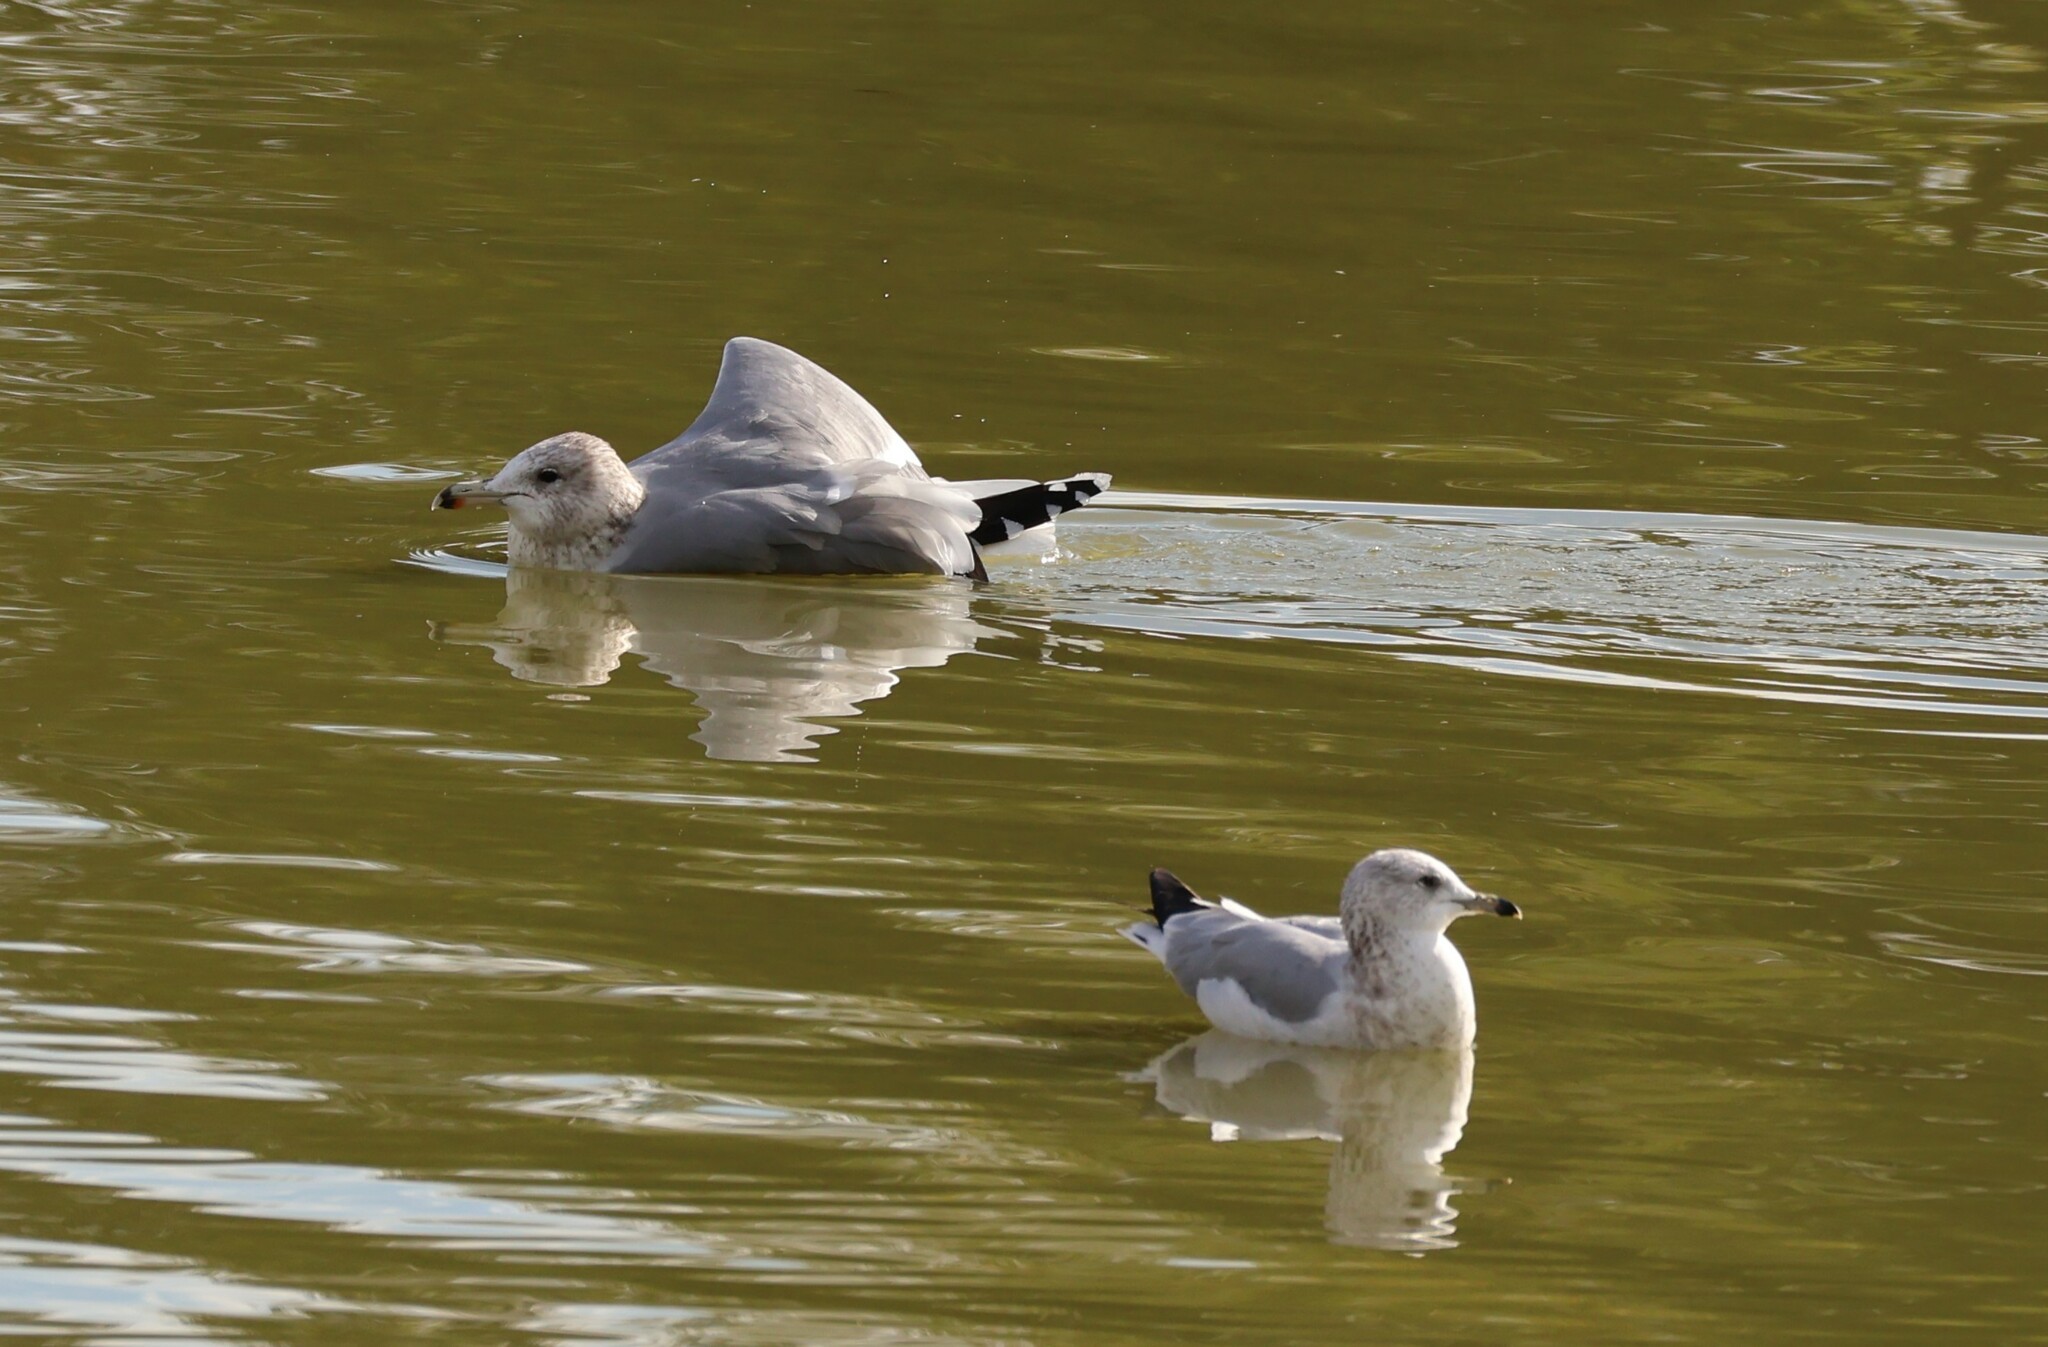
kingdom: Animalia
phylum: Chordata
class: Aves
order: Charadriiformes
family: Laridae
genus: Larus
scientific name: Larus californicus
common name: California gull
